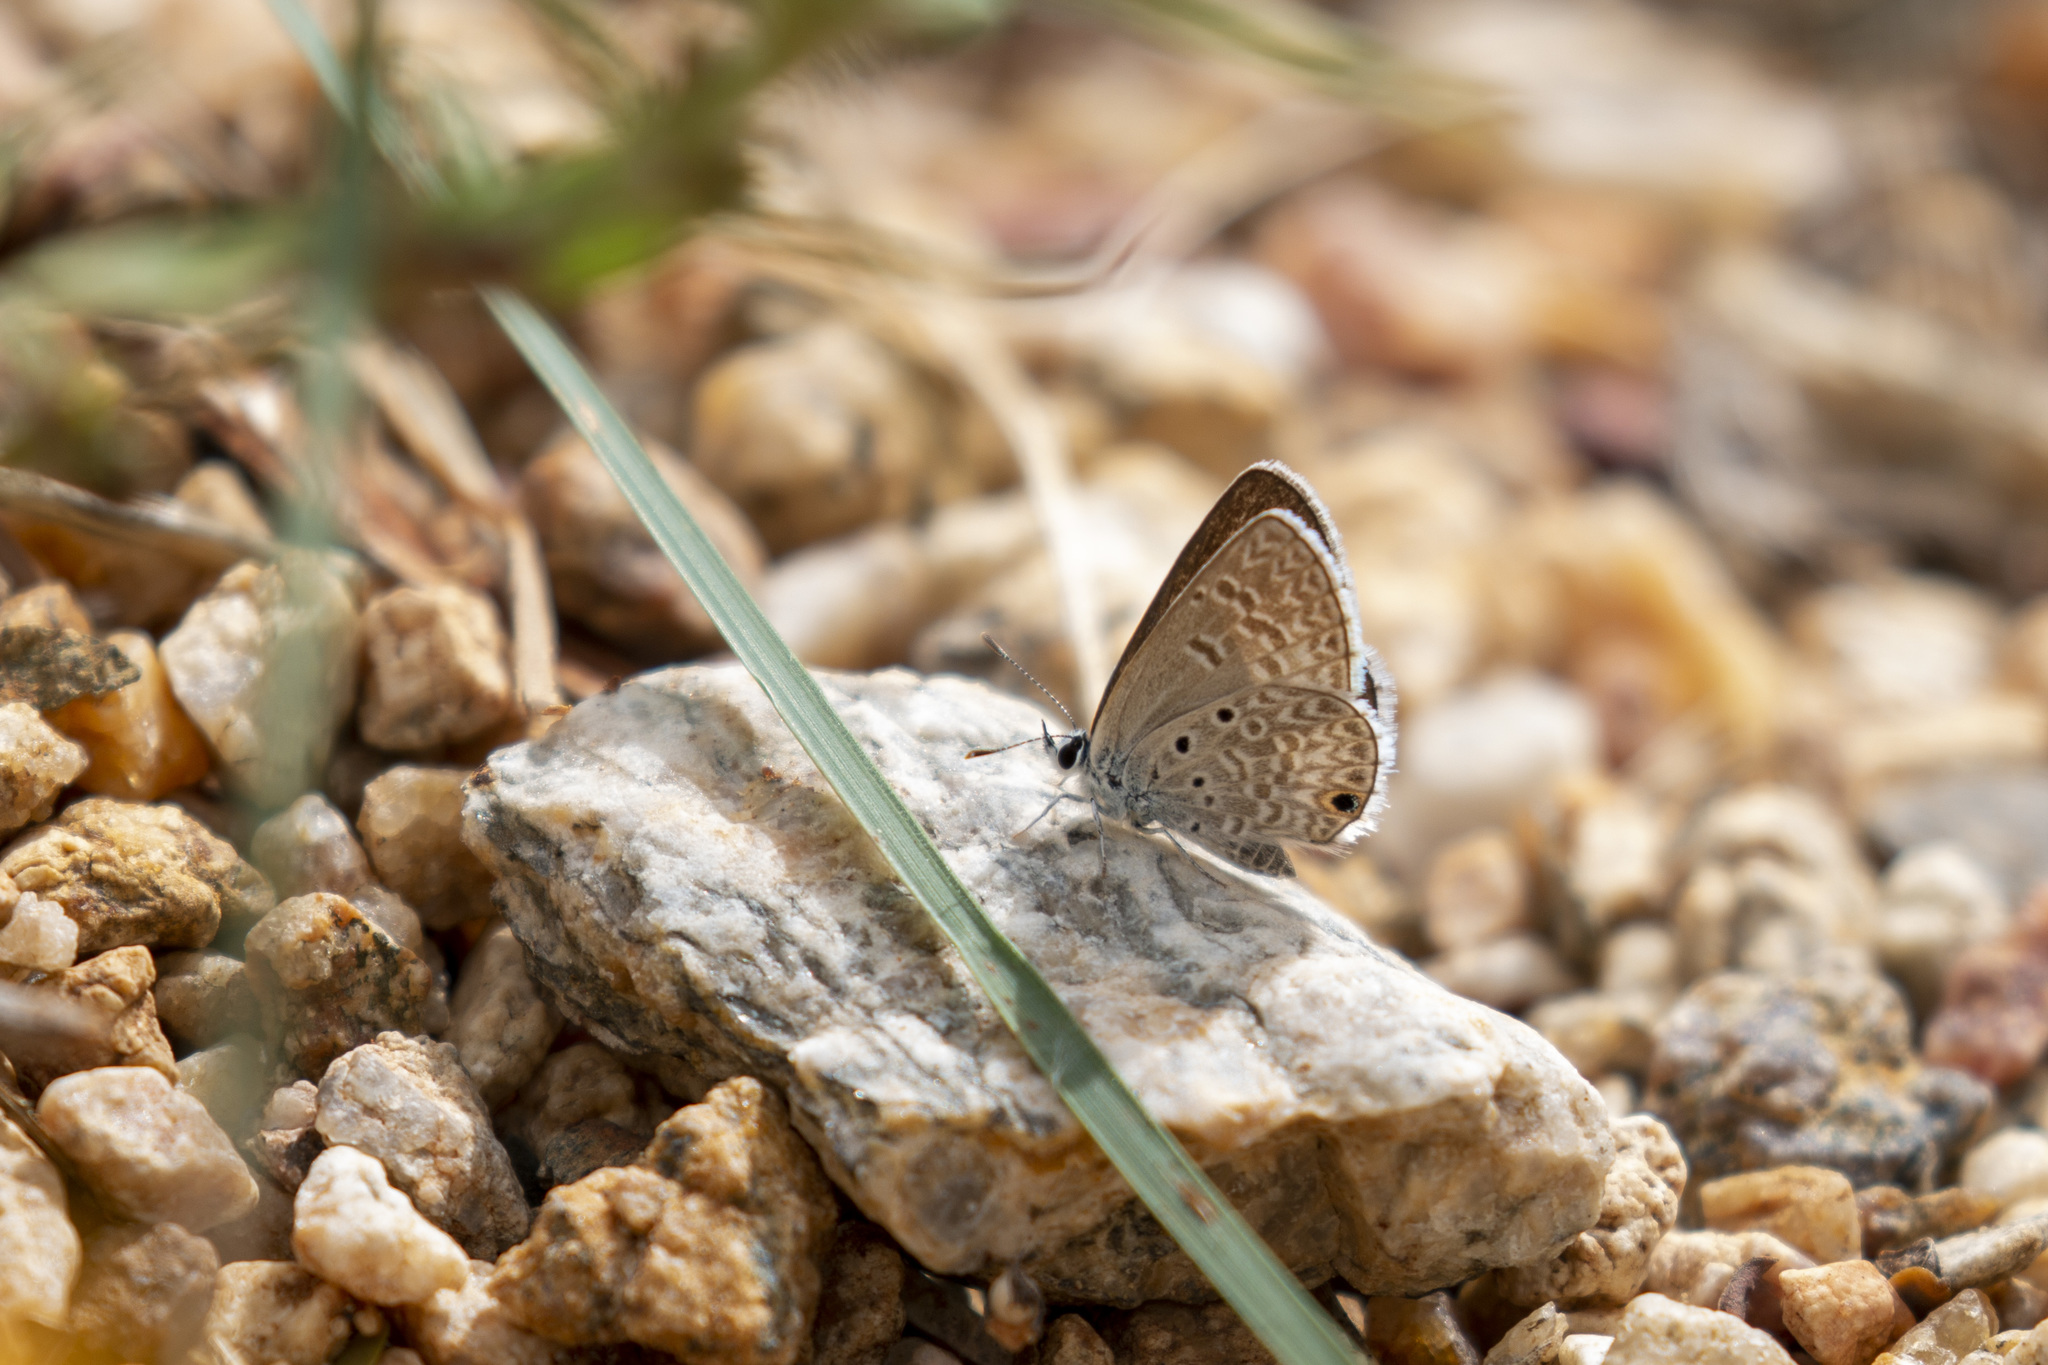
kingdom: Animalia
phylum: Arthropoda
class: Insecta
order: Lepidoptera
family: Lycaenidae
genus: Hemiargus
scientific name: Hemiargus hanno
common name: Common blue
